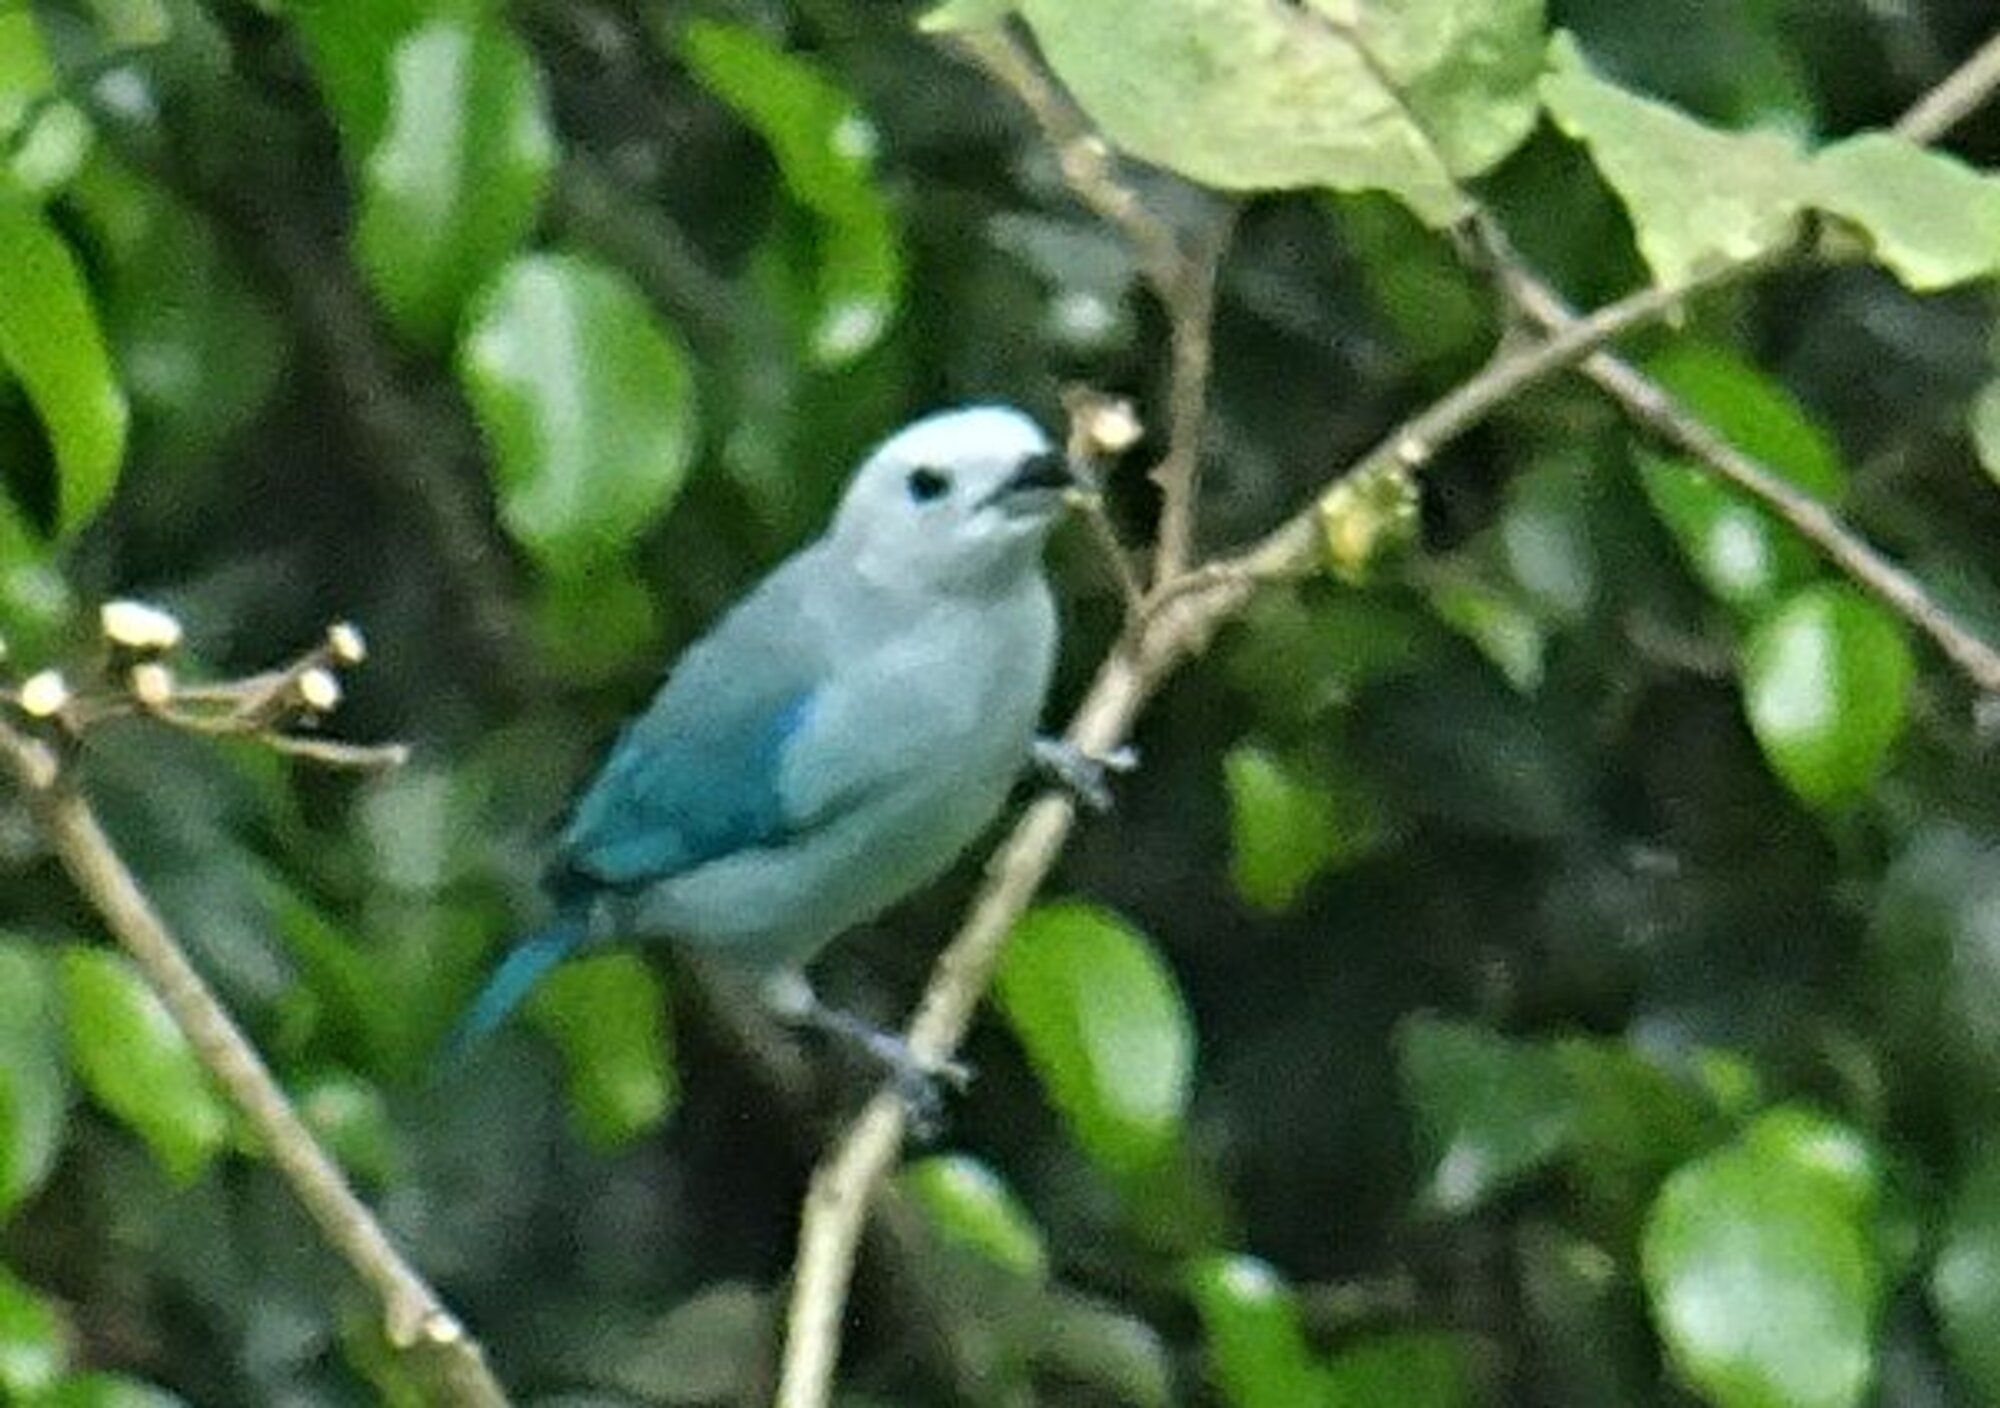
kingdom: Animalia
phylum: Chordata
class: Aves
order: Passeriformes
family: Thraupidae
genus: Thraupis
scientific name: Thraupis episcopus
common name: Blue-grey tanager
